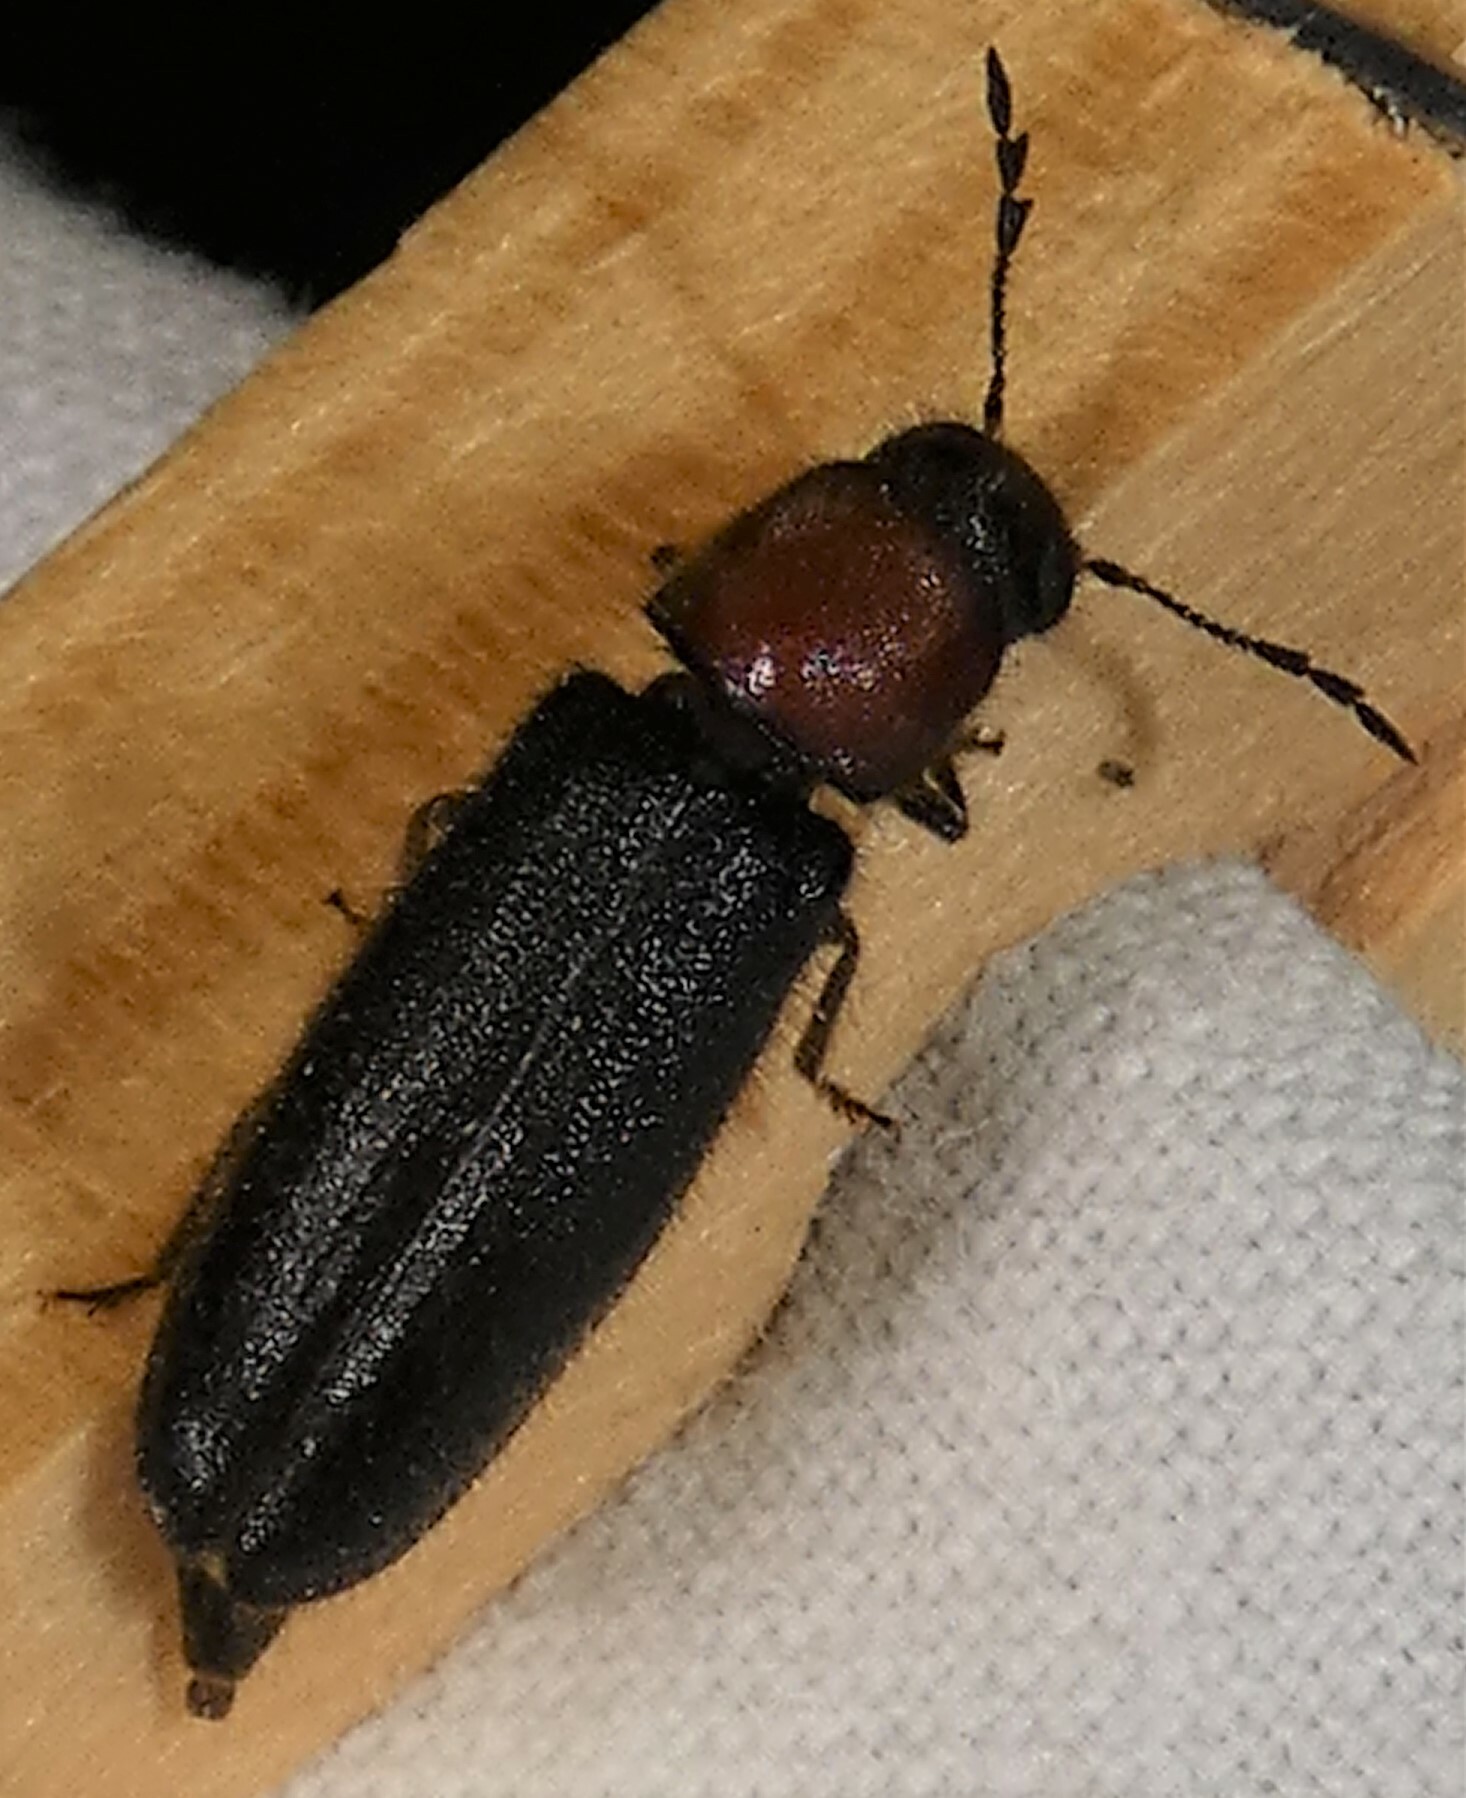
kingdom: Animalia
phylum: Arthropoda
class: Insecta
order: Coleoptera
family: Cleridae
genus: Neorthopleura
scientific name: Neorthopleura thoracica
